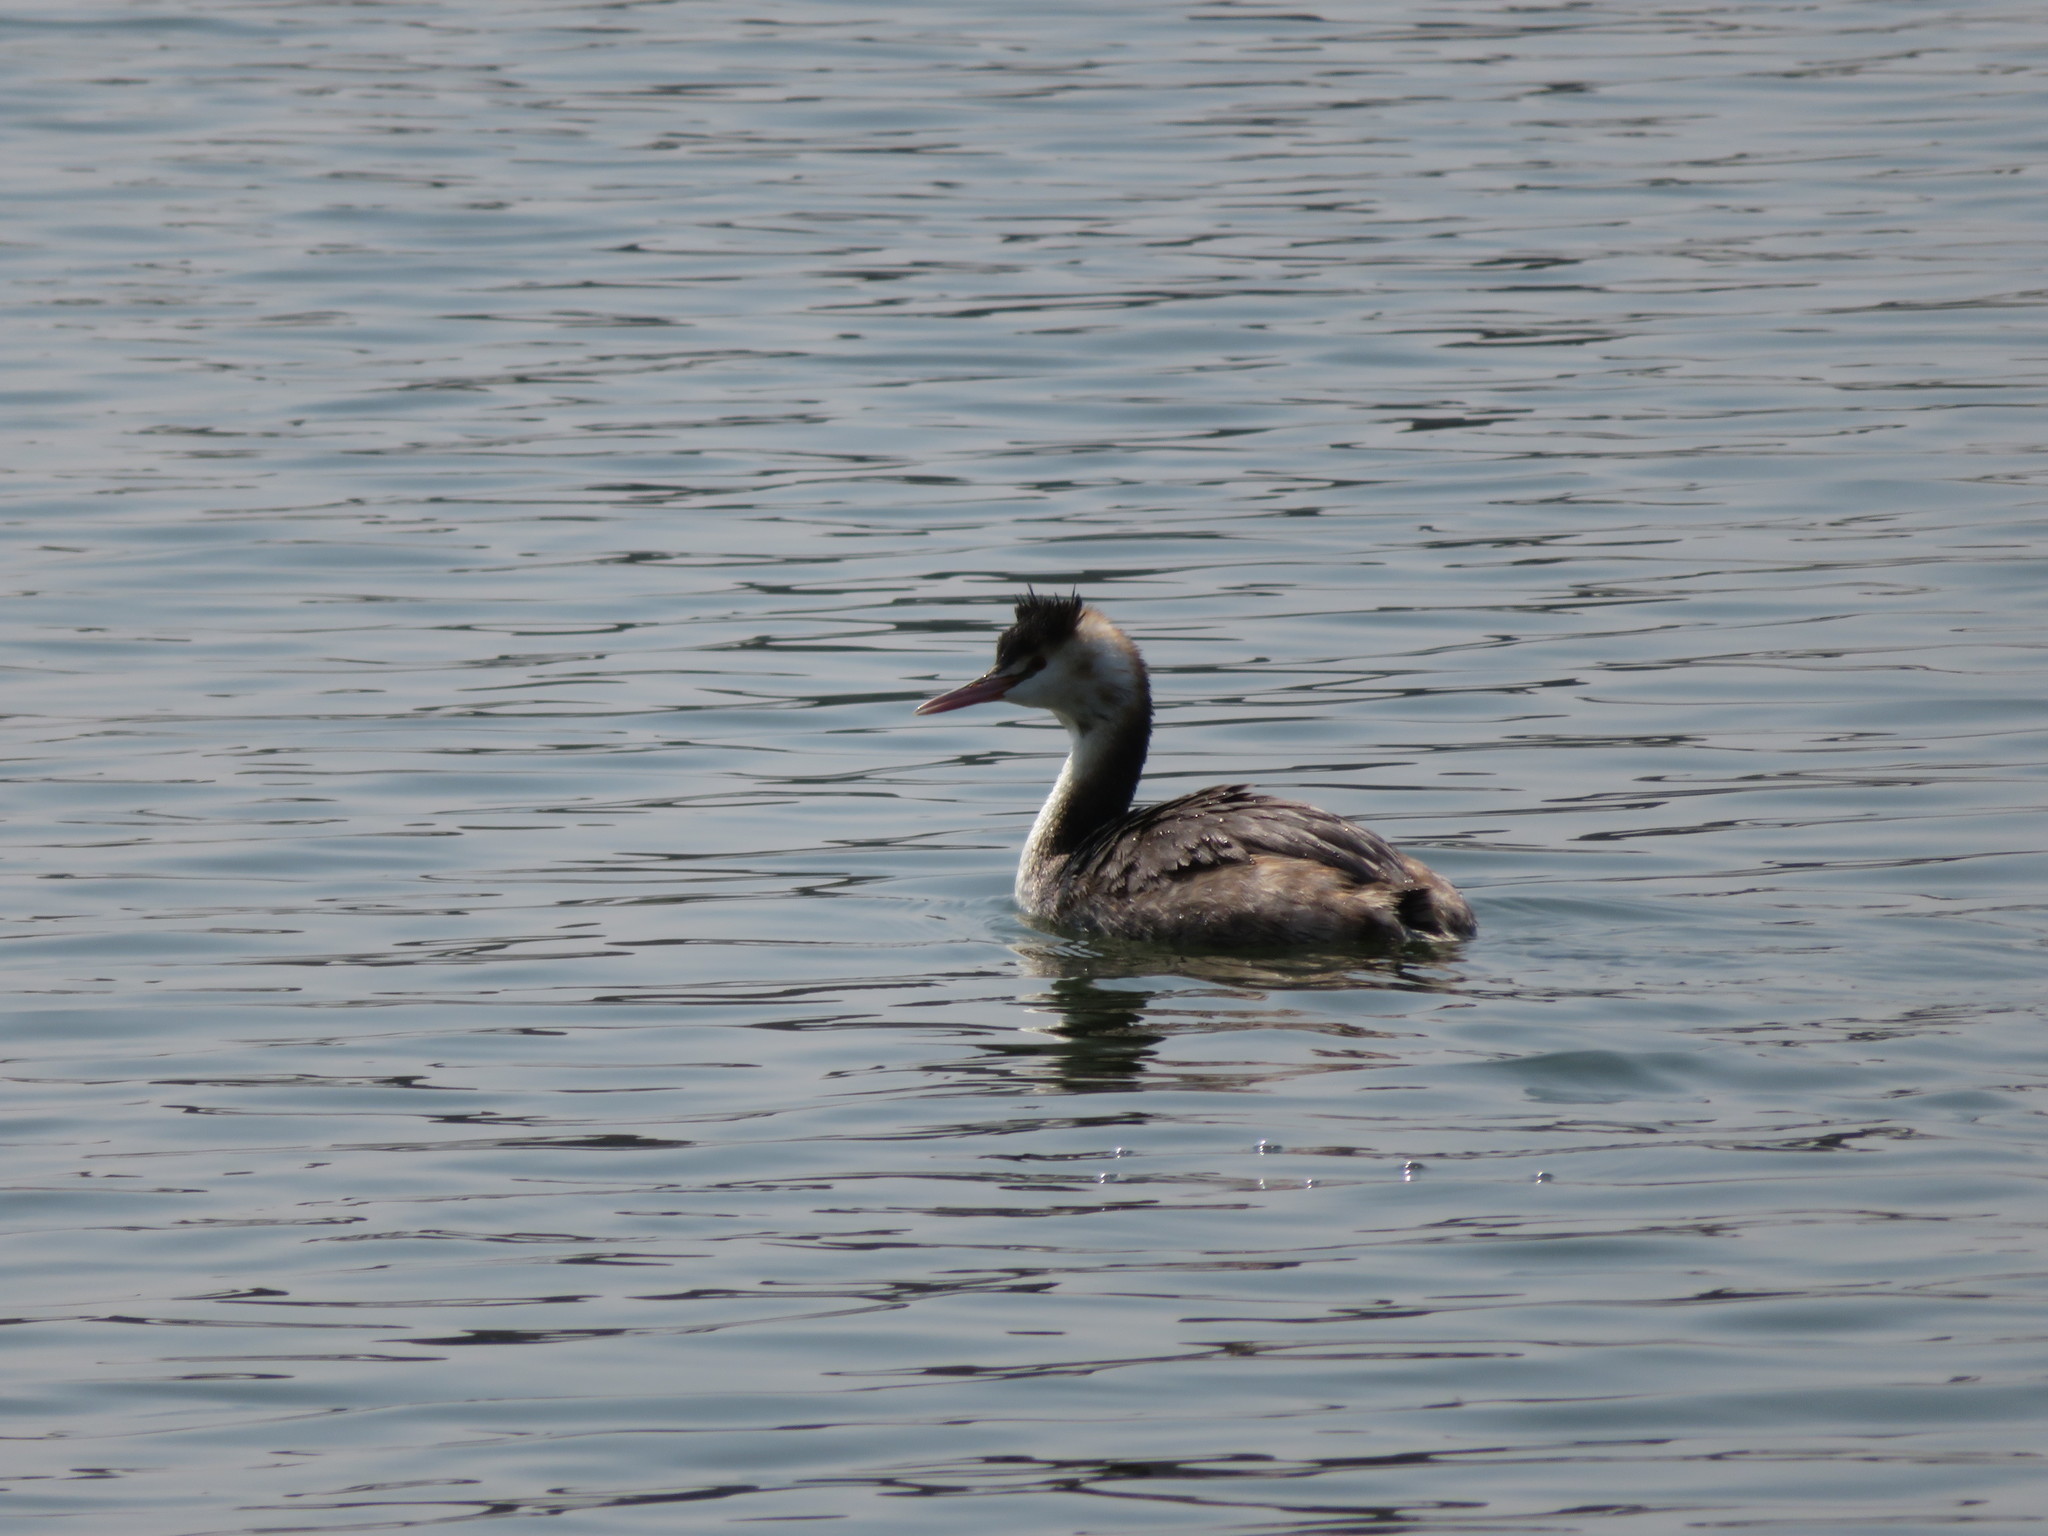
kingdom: Animalia
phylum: Chordata
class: Aves
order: Podicipediformes
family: Podicipedidae
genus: Podiceps
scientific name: Podiceps cristatus
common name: Great crested grebe
